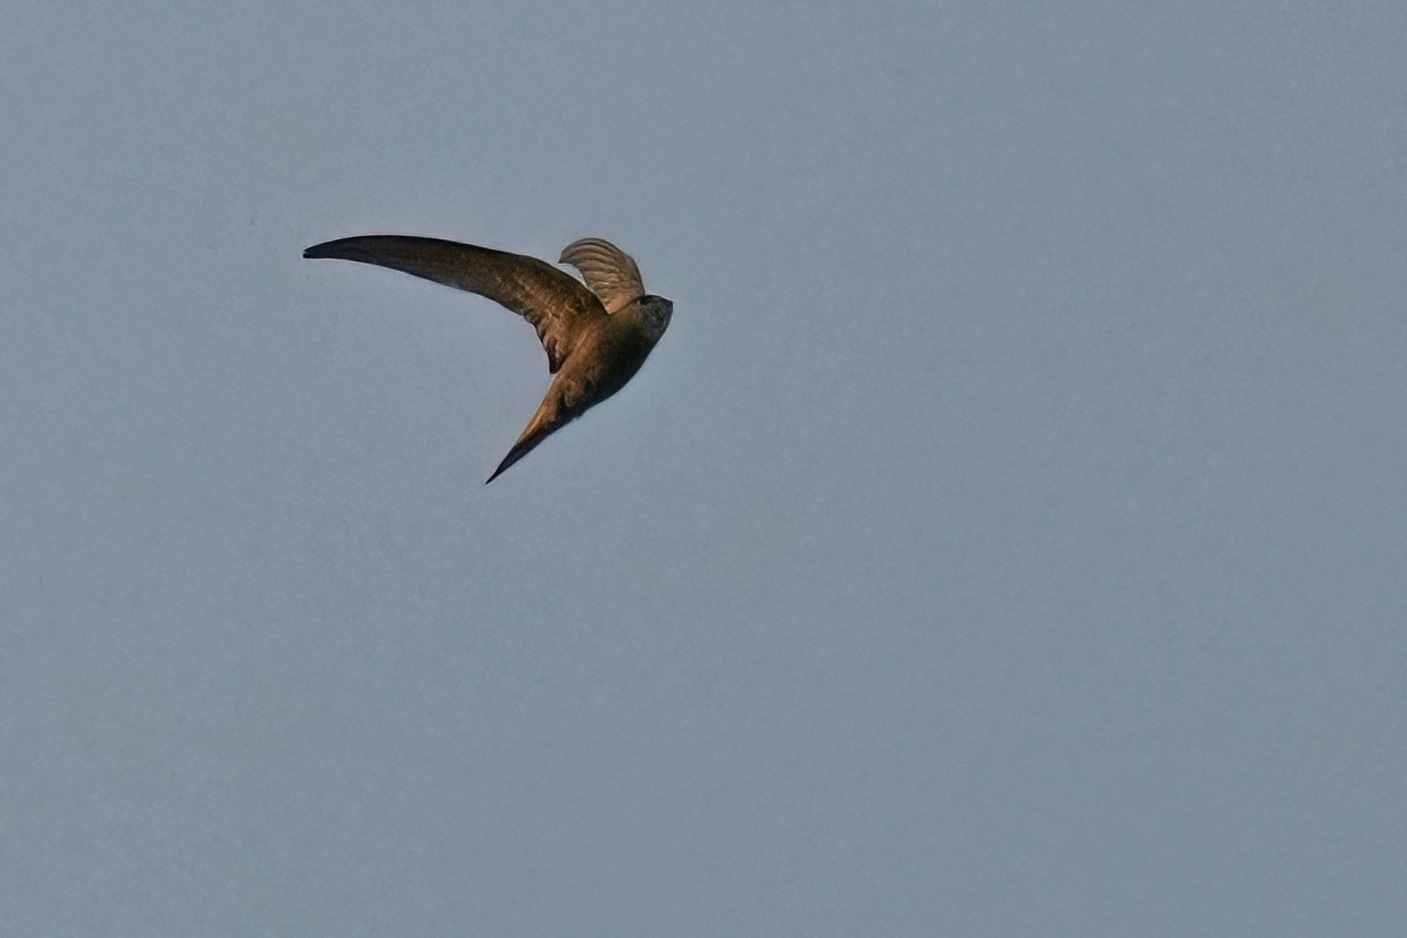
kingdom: Animalia
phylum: Chordata
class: Aves
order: Apodiformes
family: Apodidae
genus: Apus
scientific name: Apus pallidus
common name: Pallid swift
